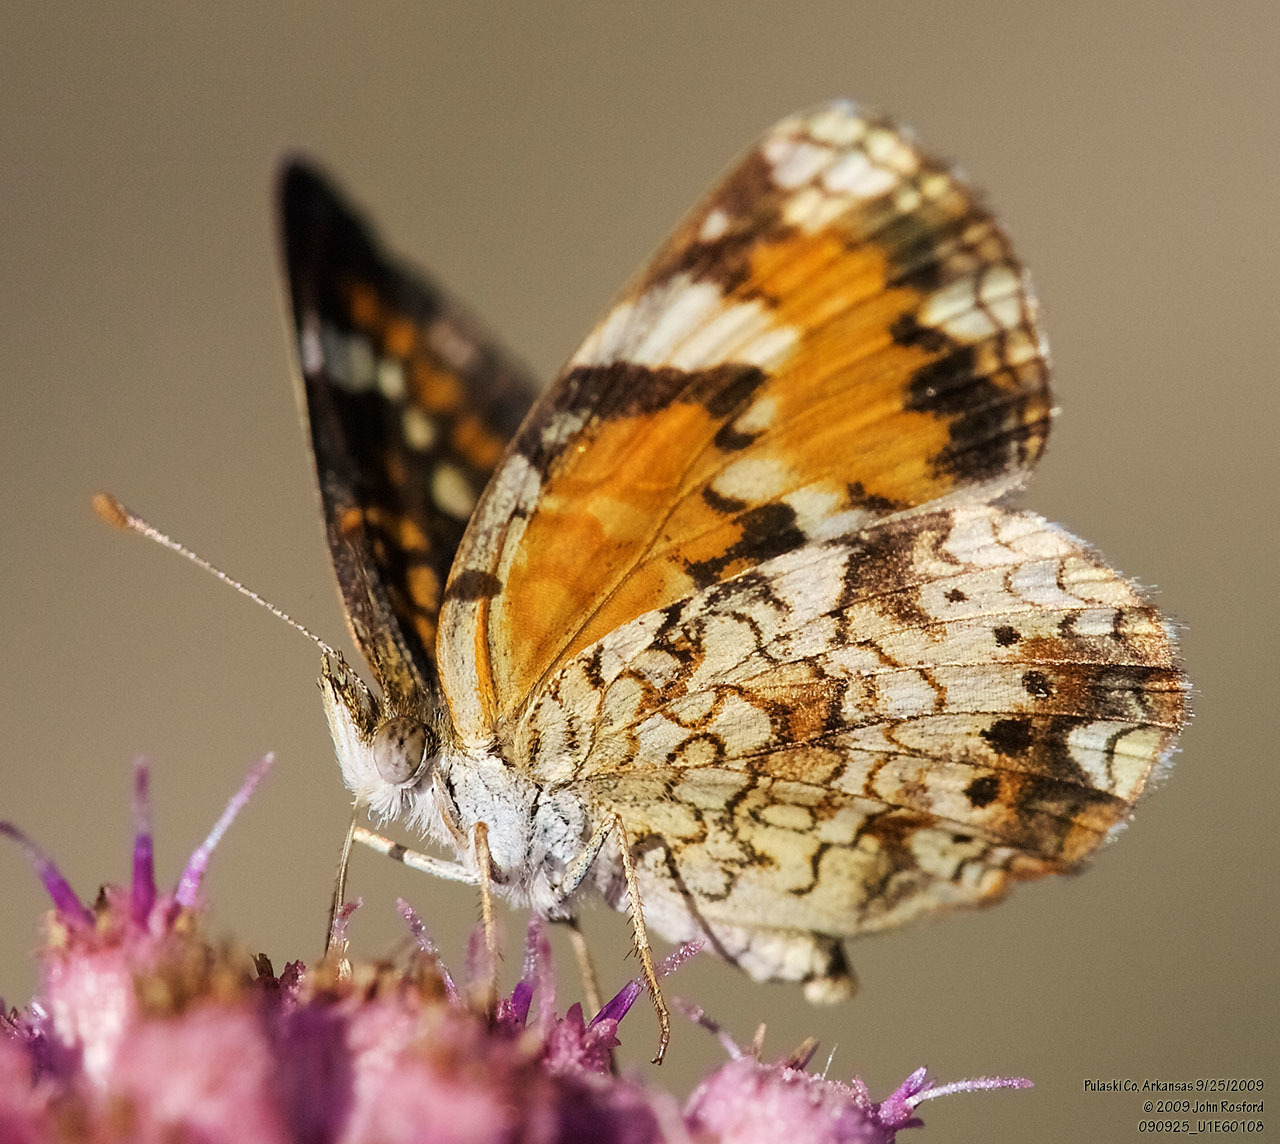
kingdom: Animalia
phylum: Arthropoda
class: Insecta
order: Lepidoptera
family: Nymphalidae
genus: Phyciodes
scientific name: Phyciodes phaon
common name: Phaon crescent
